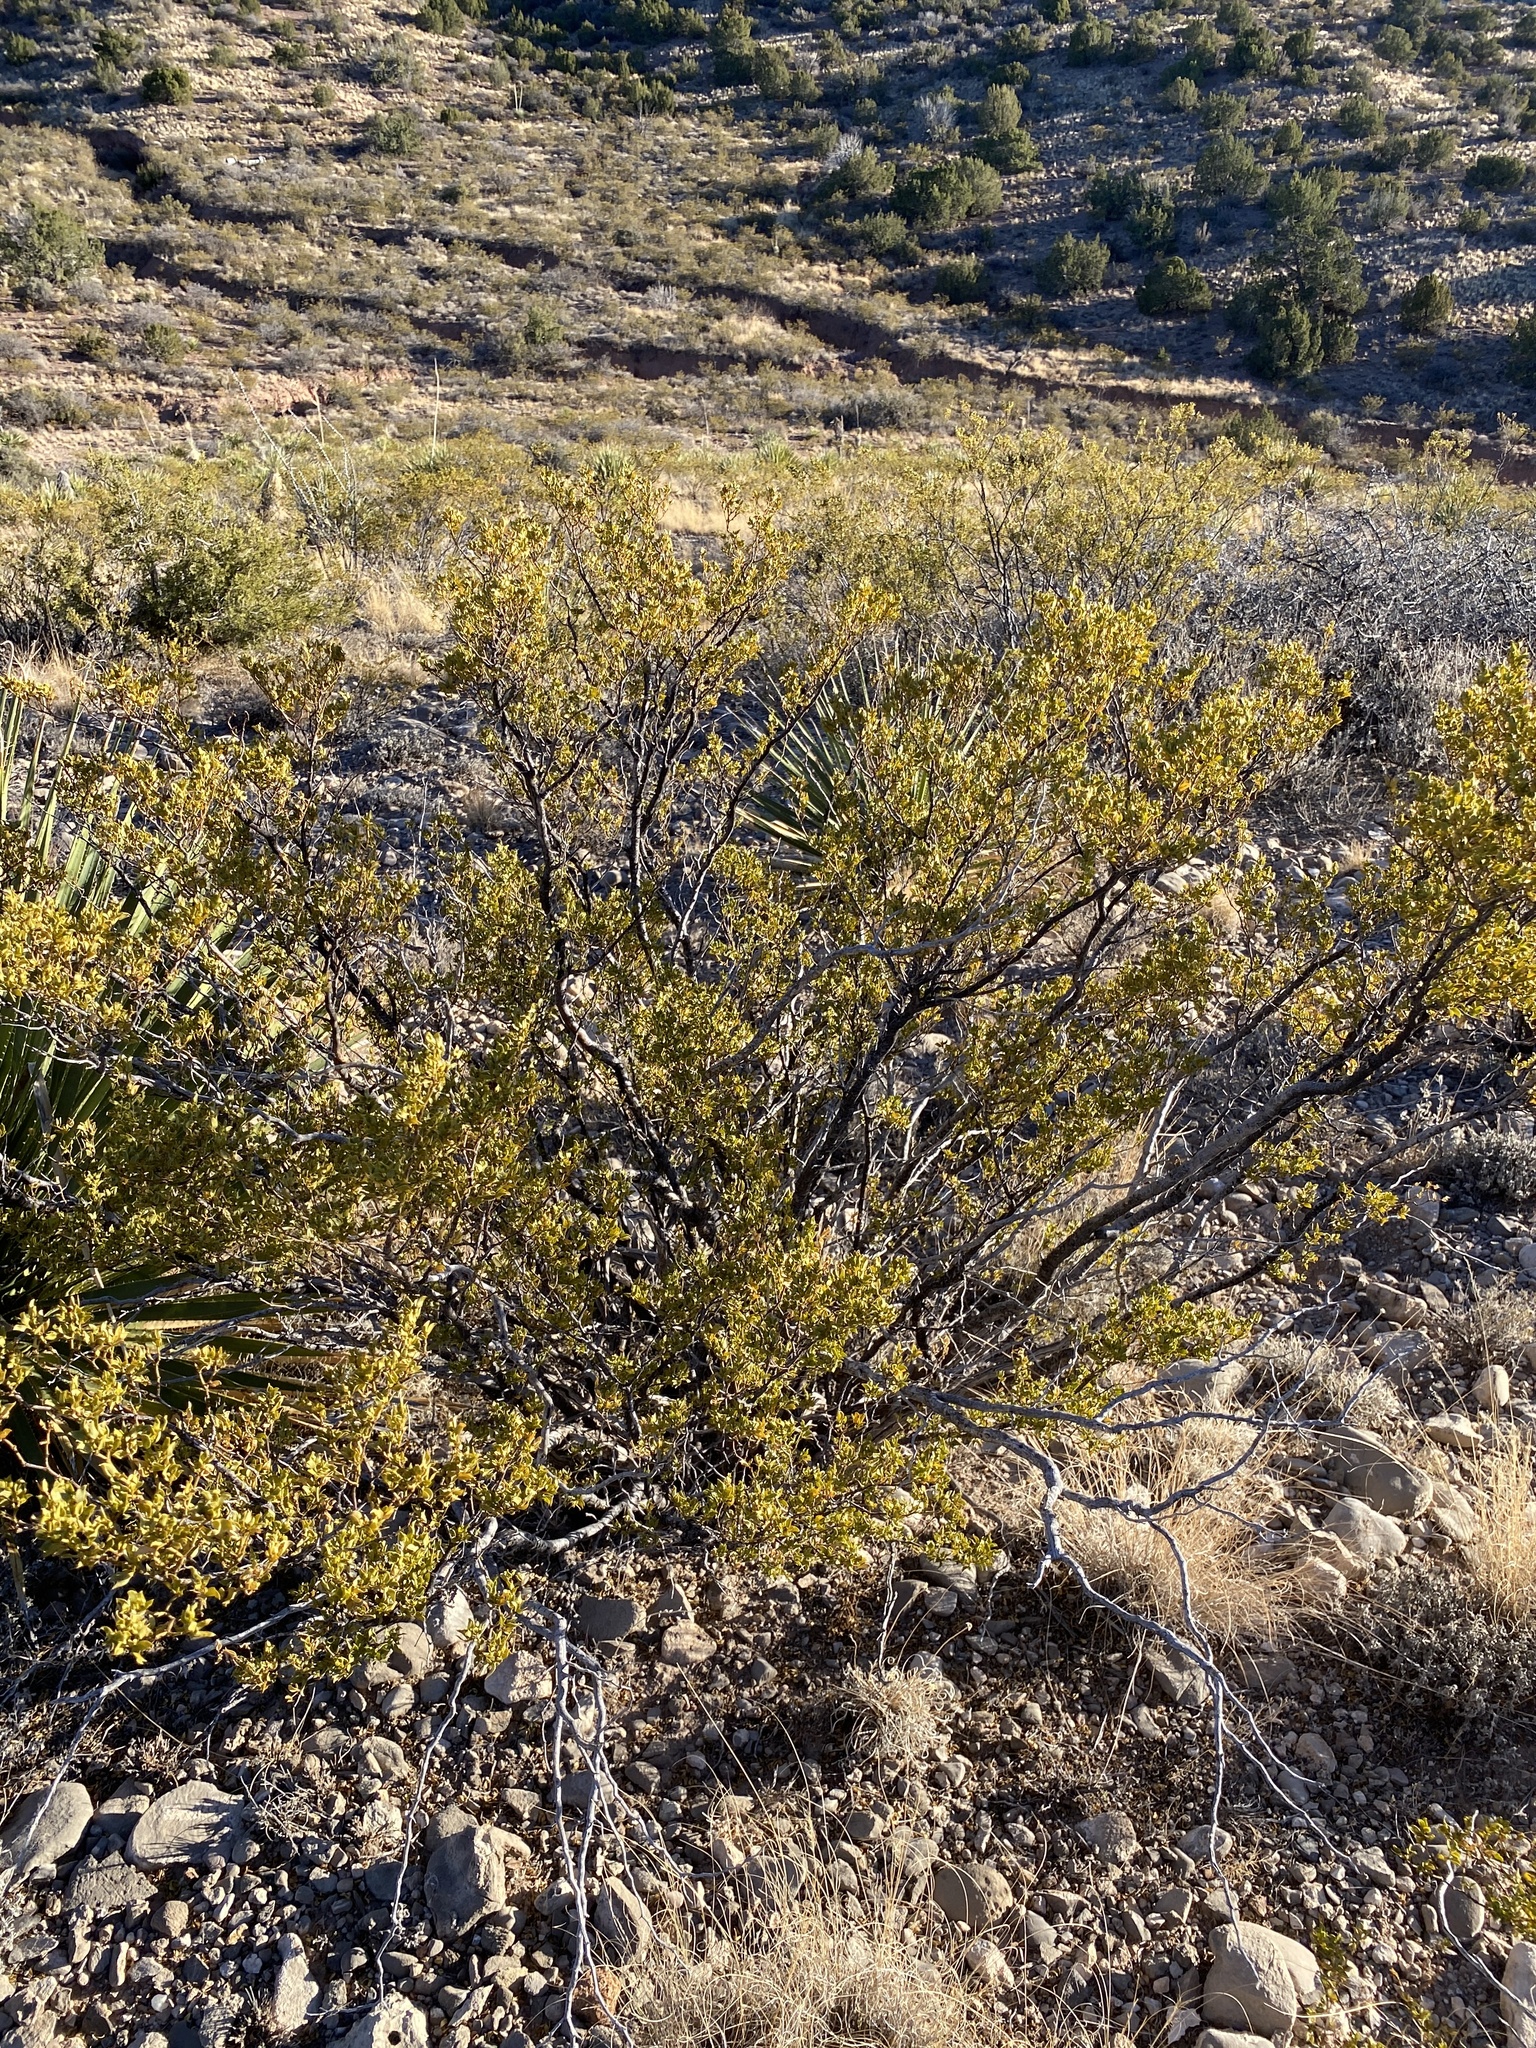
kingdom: Plantae
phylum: Tracheophyta
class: Magnoliopsida
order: Zygophyllales
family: Zygophyllaceae
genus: Larrea
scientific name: Larrea tridentata
